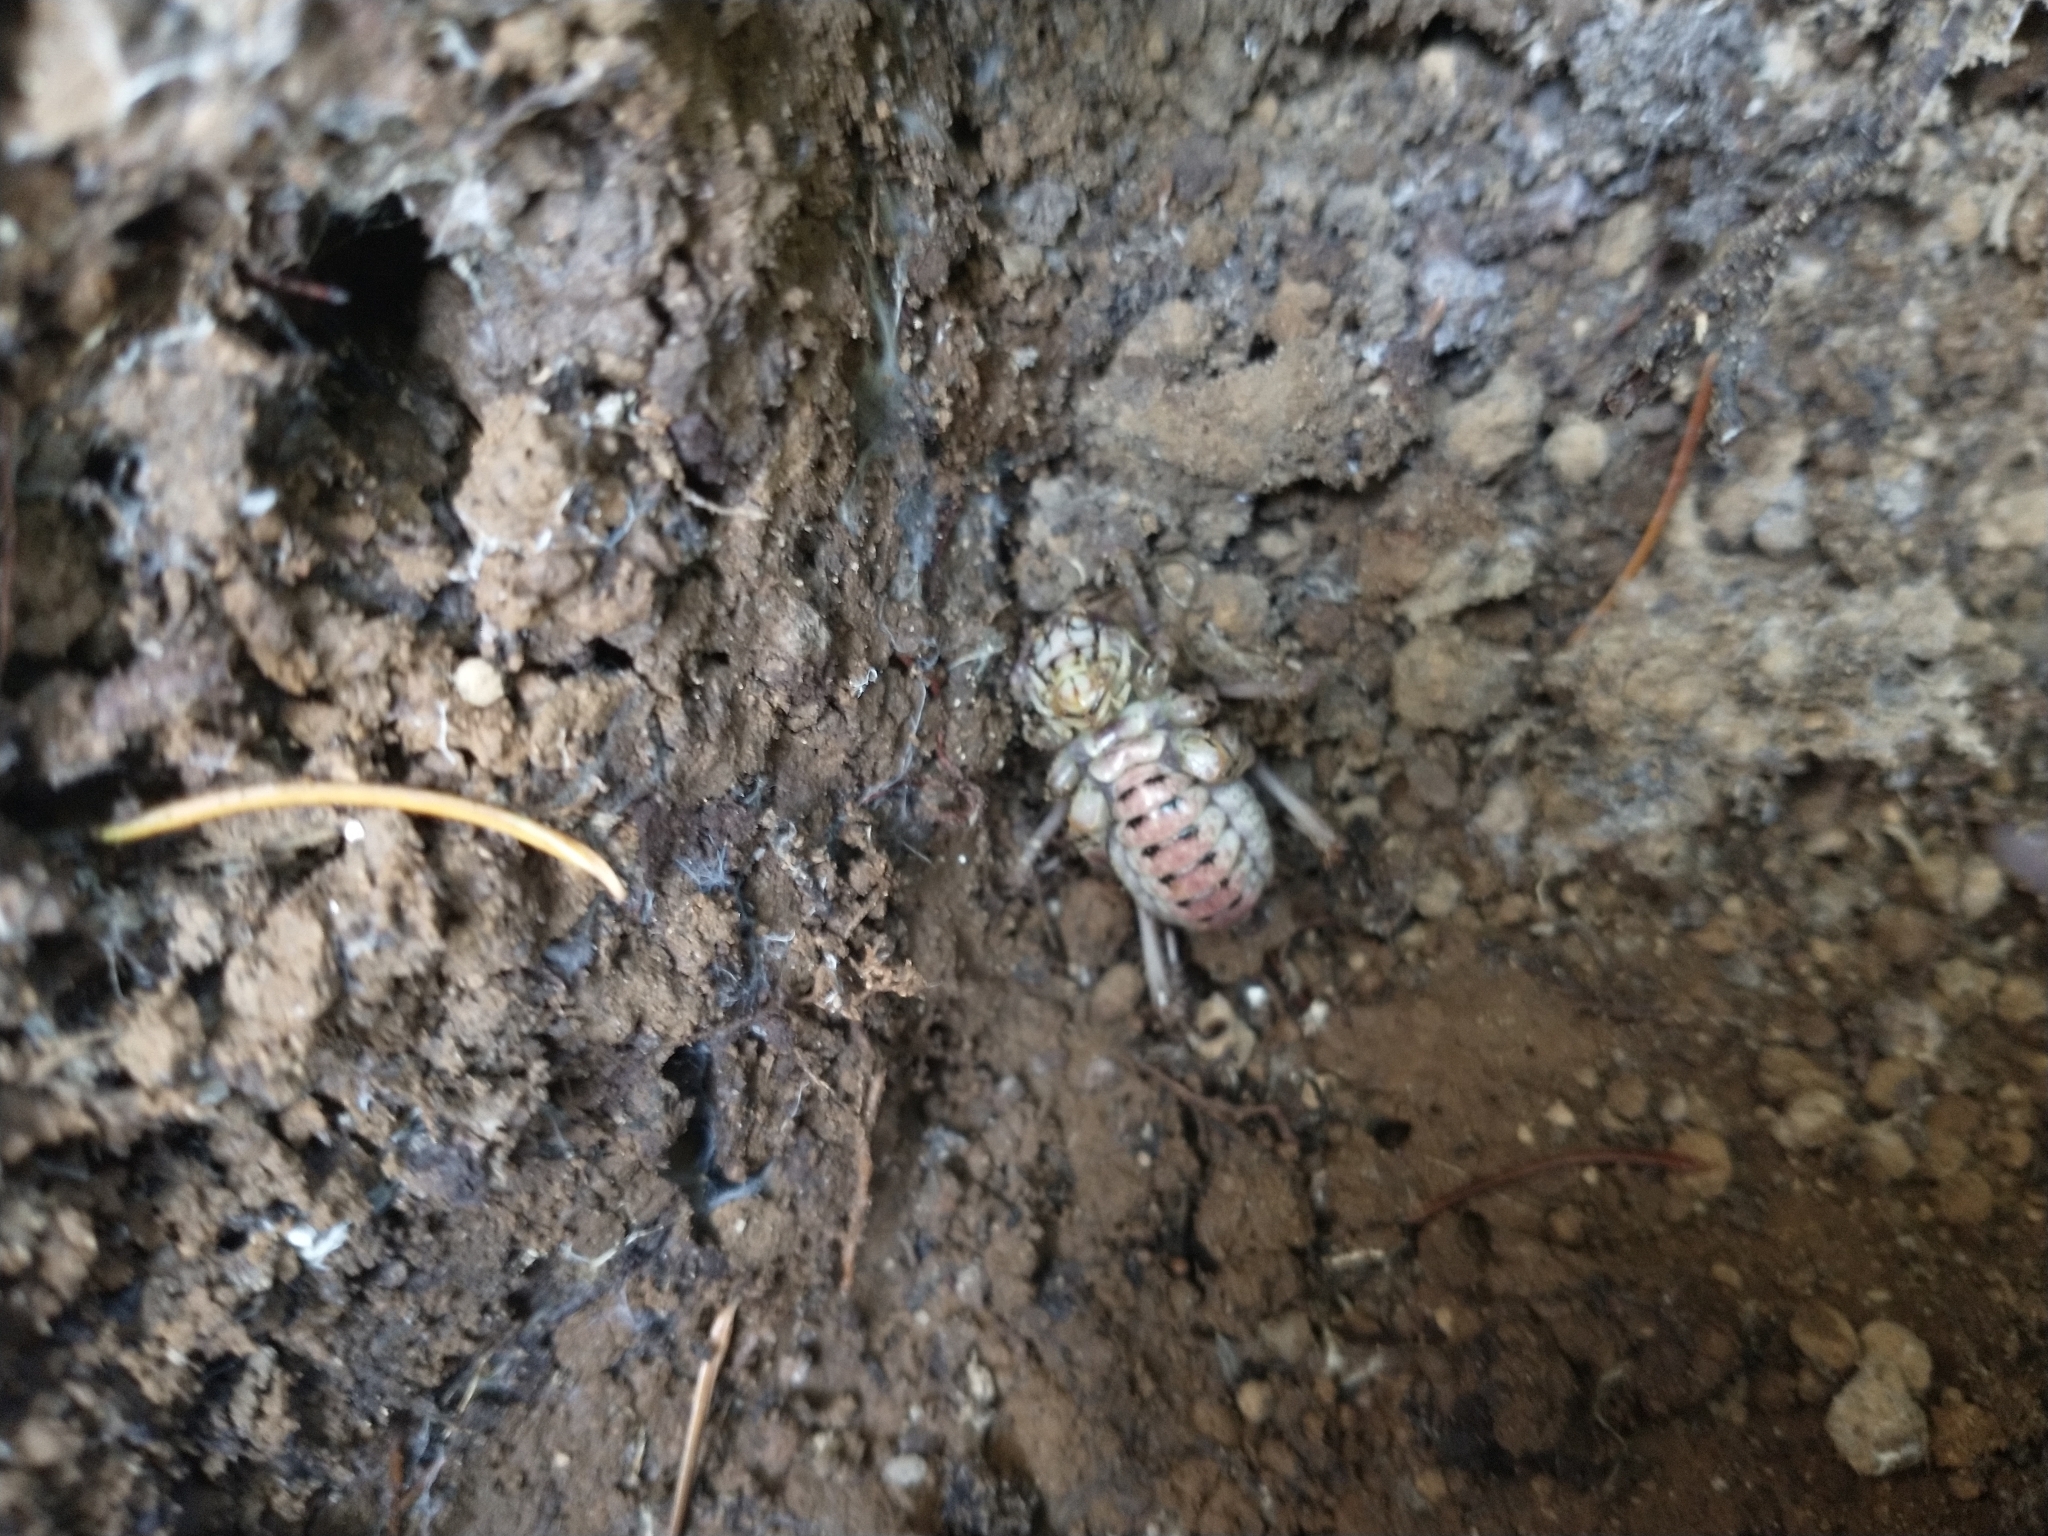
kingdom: Animalia
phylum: Arthropoda
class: Insecta
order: Orthoptera
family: Prophalangopsidae
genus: Cyphoderris
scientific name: Cyphoderris monstrosa
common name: Great grig
